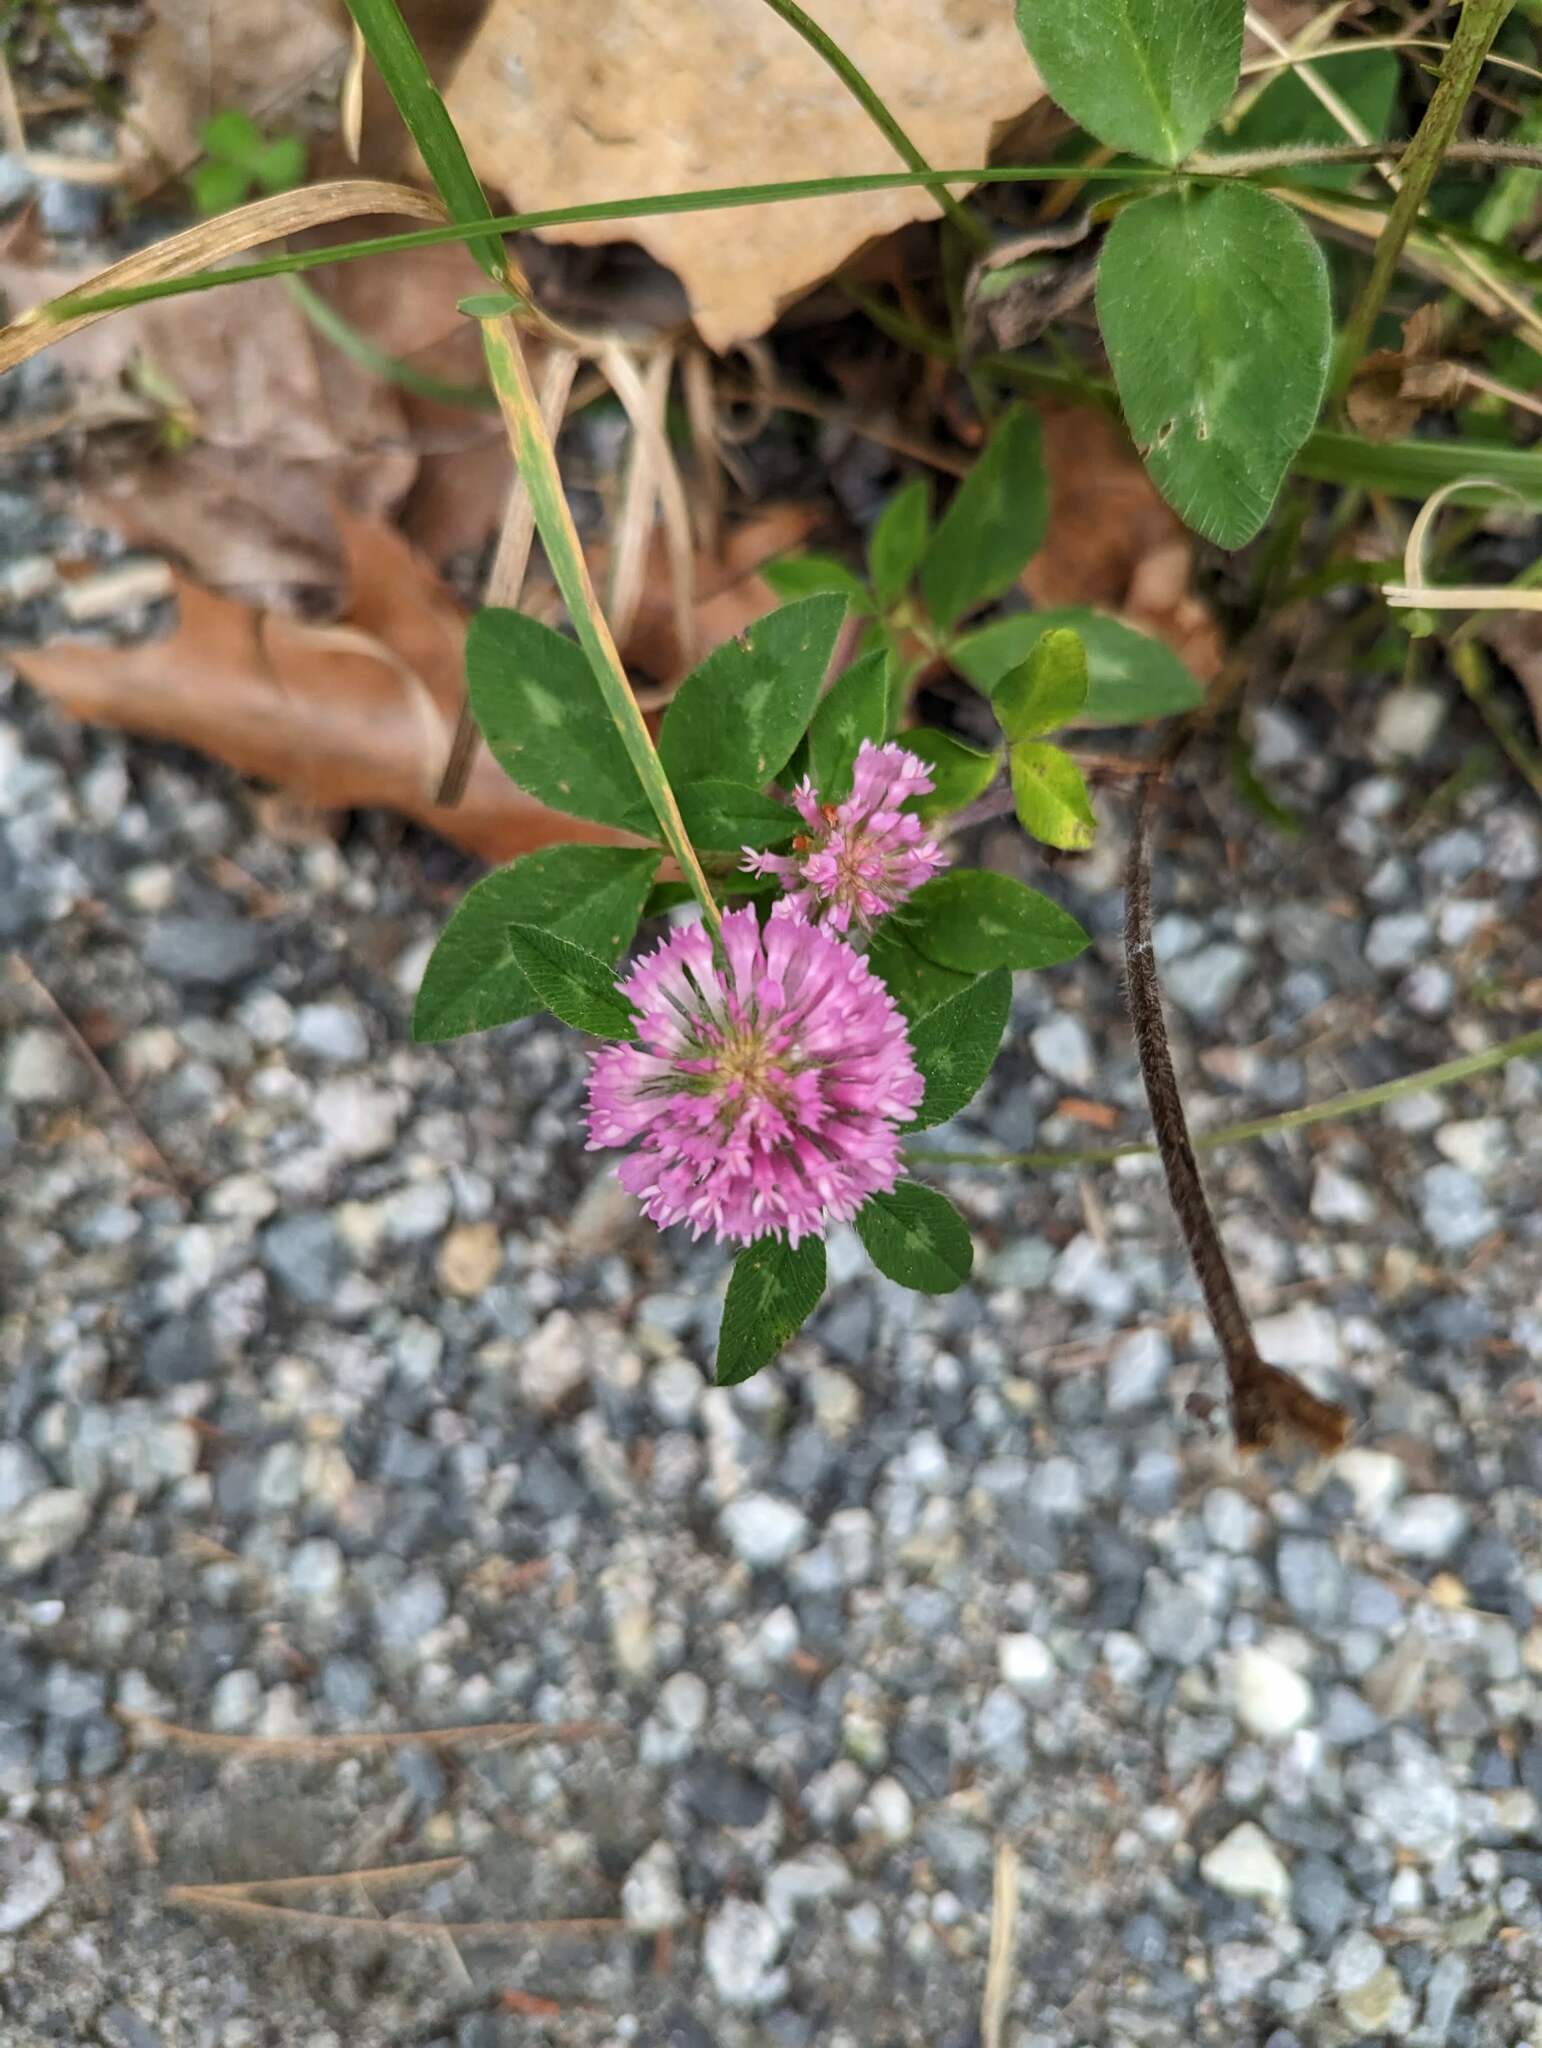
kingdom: Plantae
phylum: Tracheophyta
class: Magnoliopsida
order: Fabales
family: Fabaceae
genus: Trifolium
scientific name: Trifolium pratense
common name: Red clover
